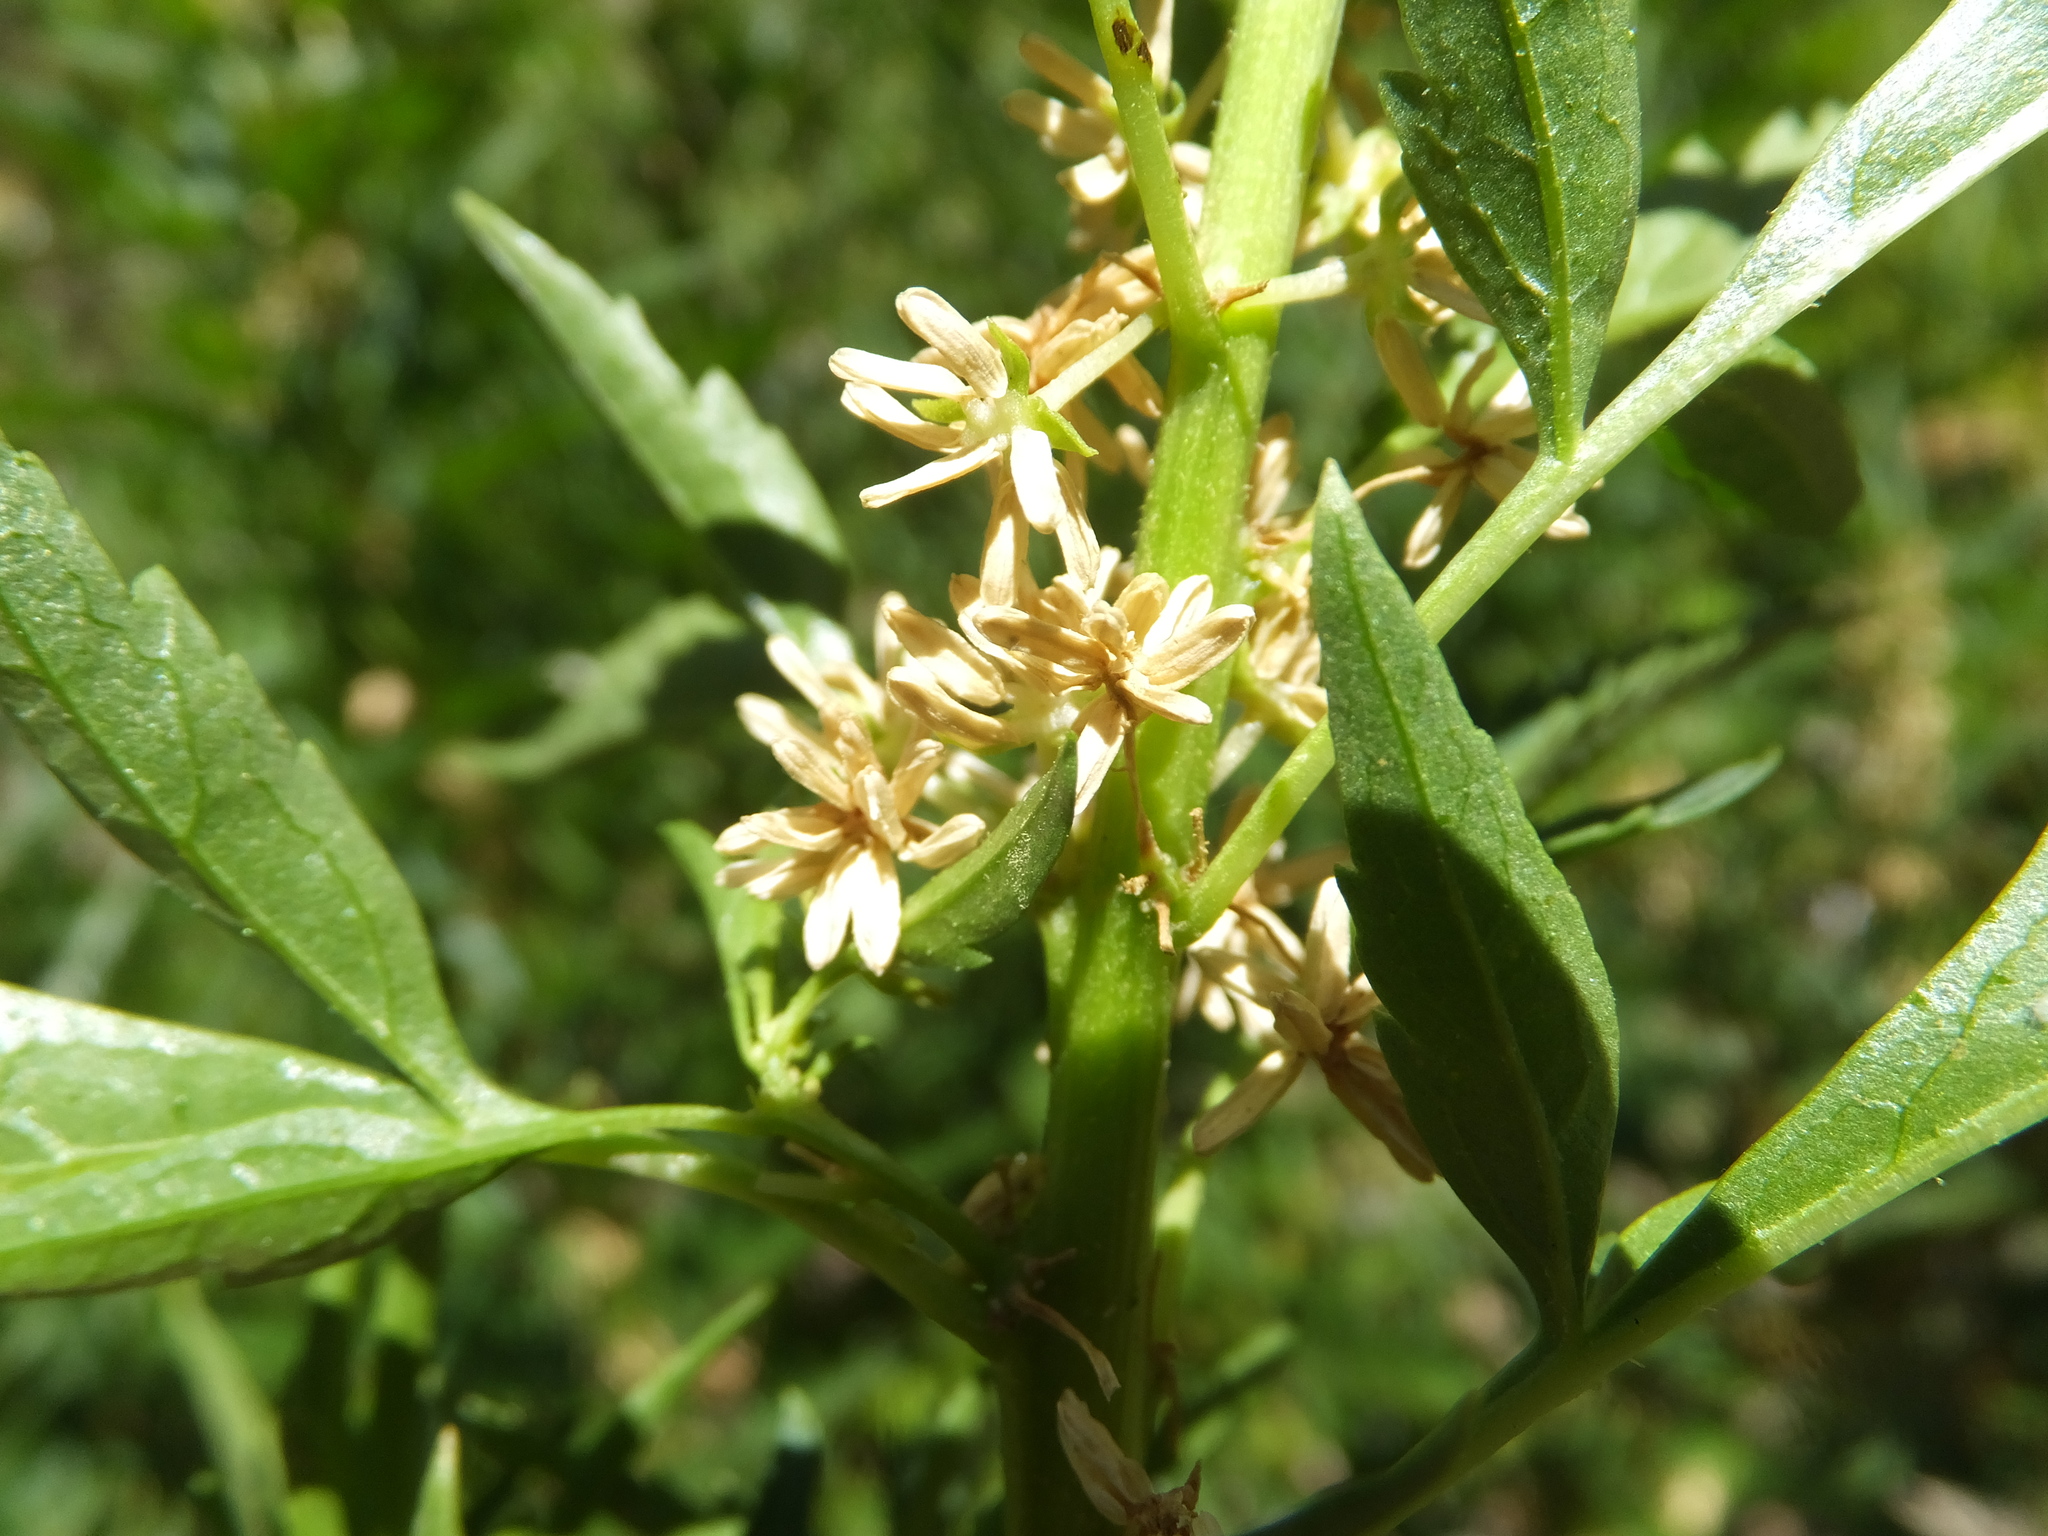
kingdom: Plantae
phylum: Tracheophyta
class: Magnoliopsida
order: Cucurbitales
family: Datiscaceae
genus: Datisca
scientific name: Datisca glomerata
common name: Durango-root
